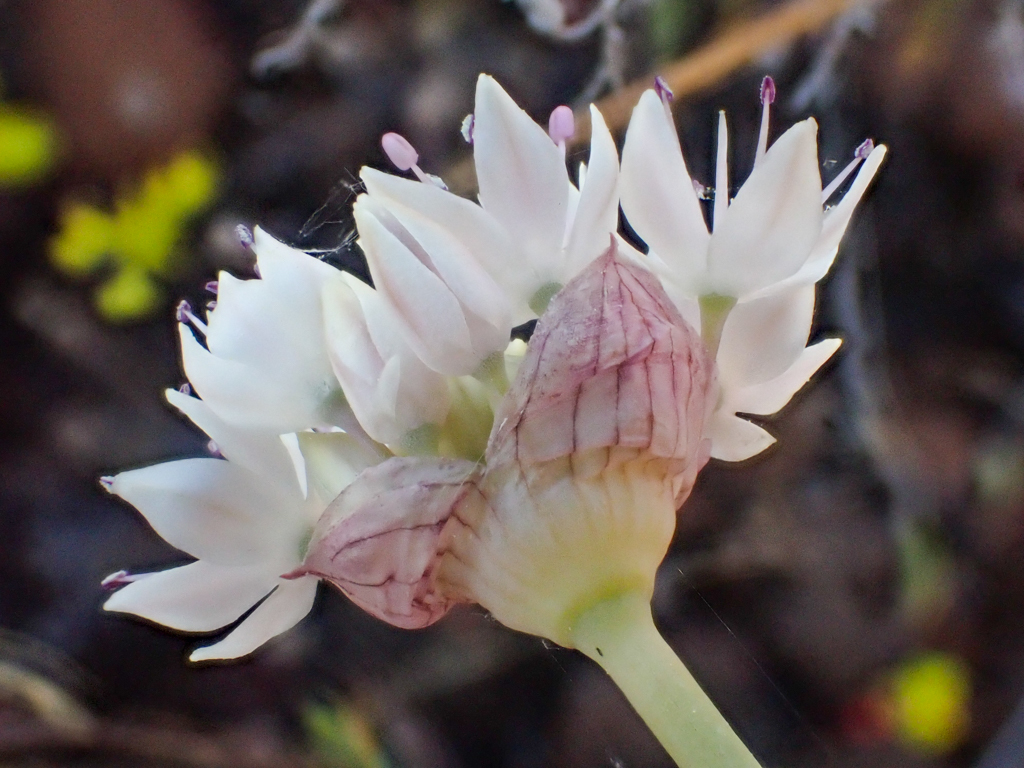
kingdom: Plantae
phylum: Tracheophyta
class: Liliopsida
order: Asparagales
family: Amaryllidaceae
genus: Allium
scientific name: Allium amplectens
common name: Narrow-leaved onion
